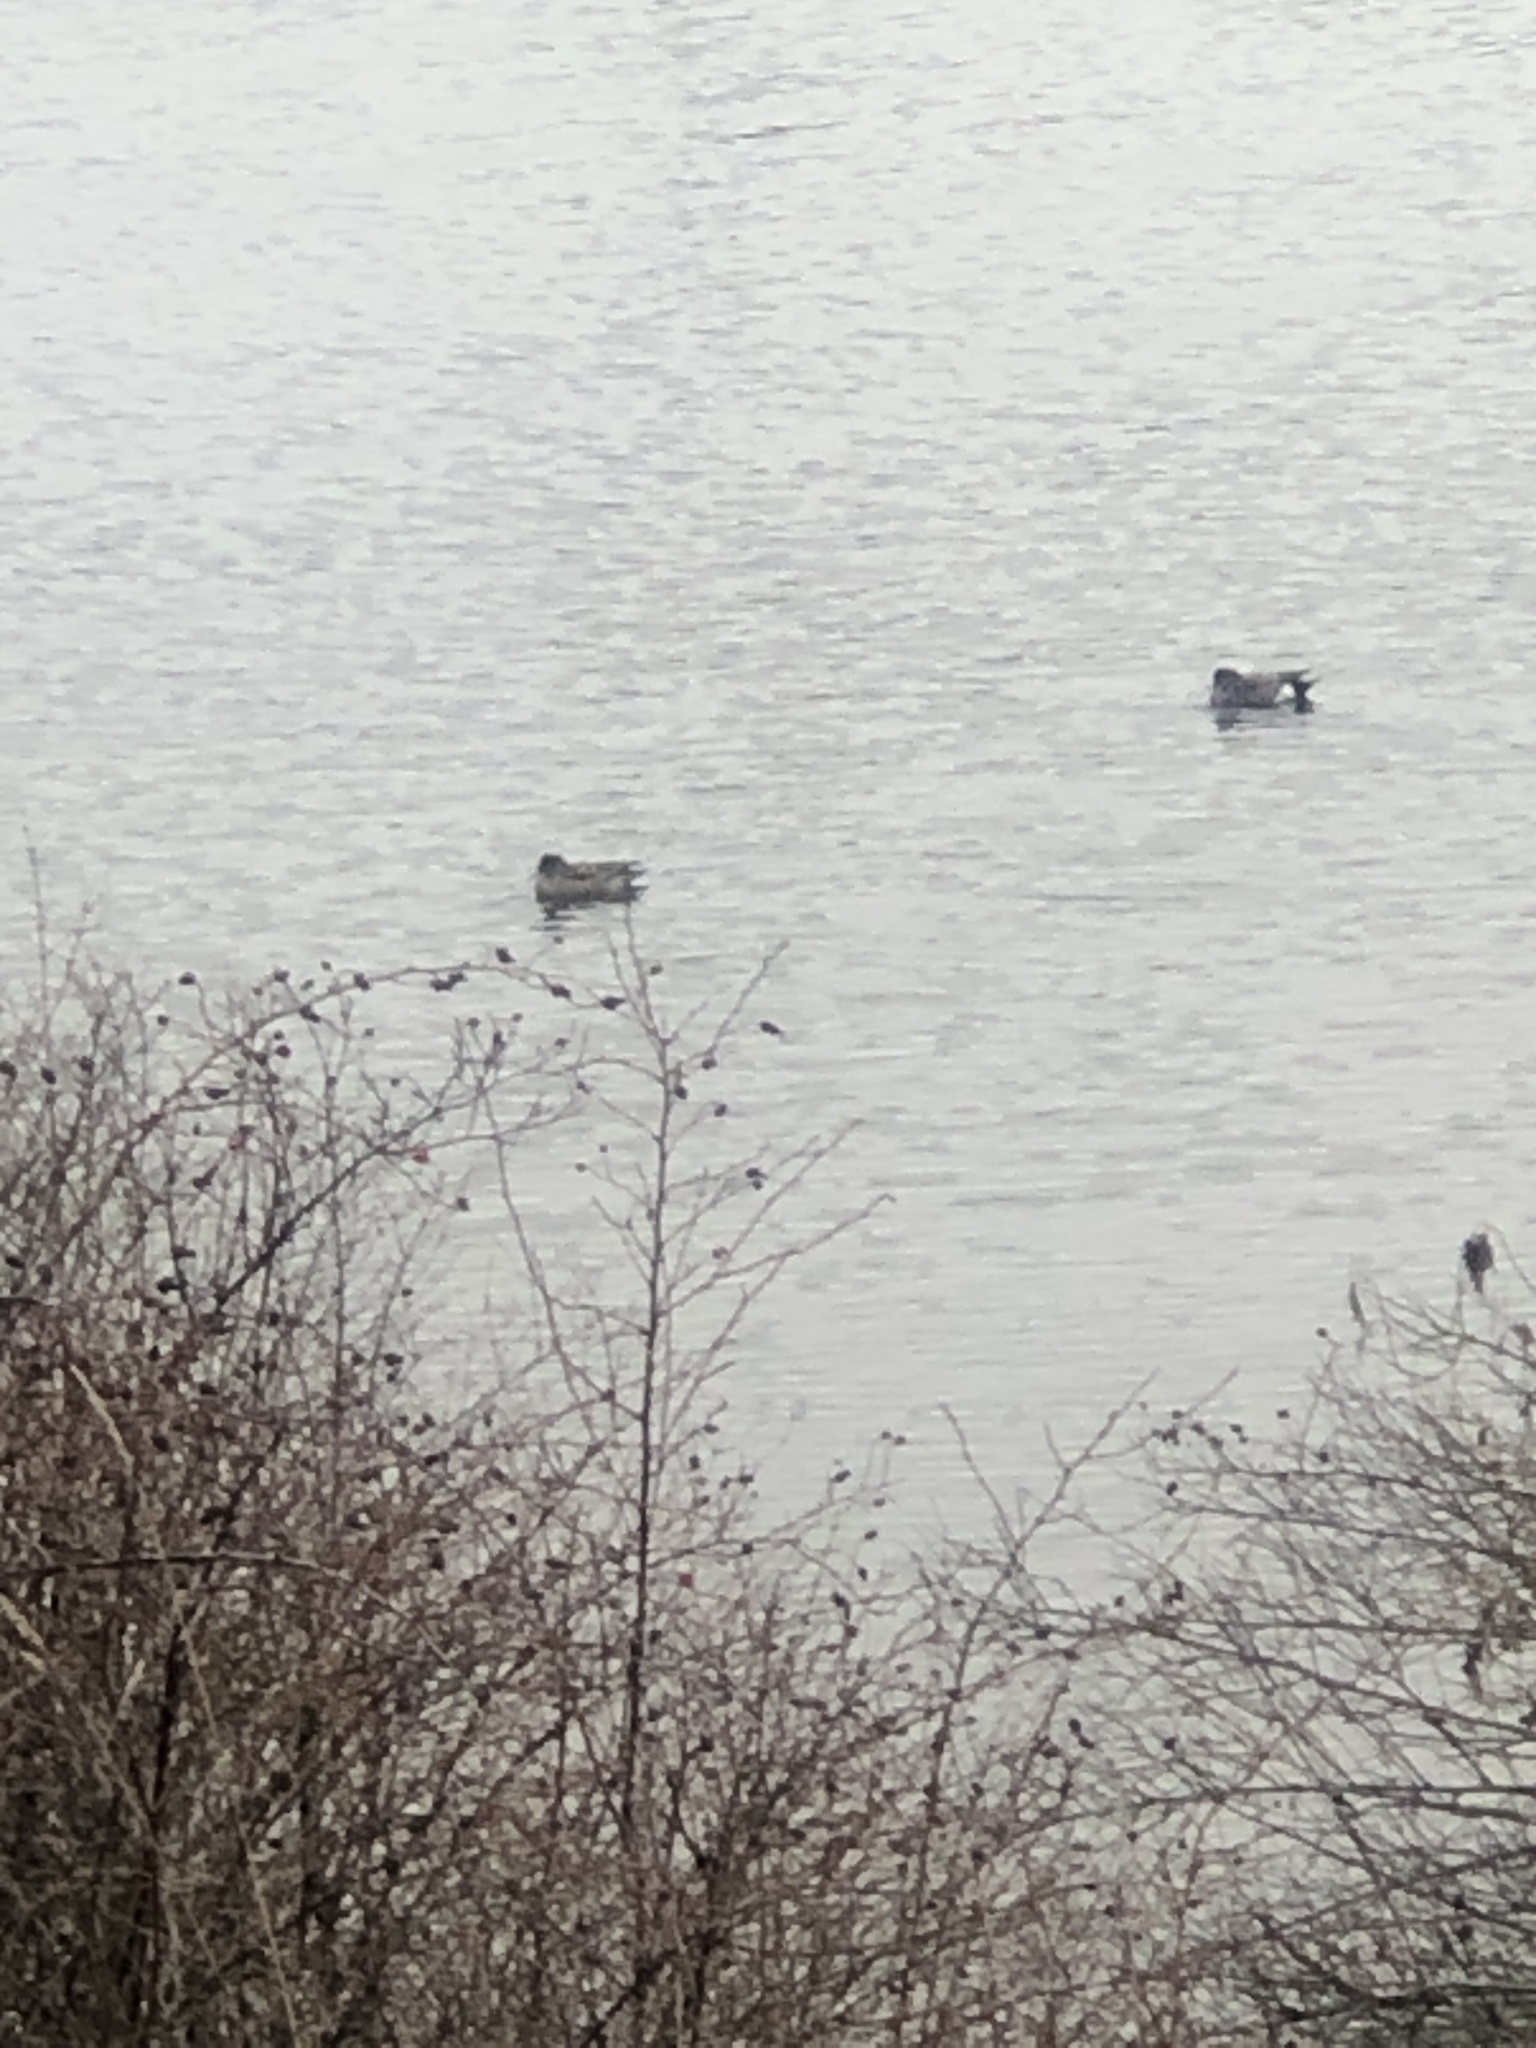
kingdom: Animalia
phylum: Chordata
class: Aves
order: Anseriformes
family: Anatidae
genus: Mareca
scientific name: Mareca americana
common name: American wigeon
